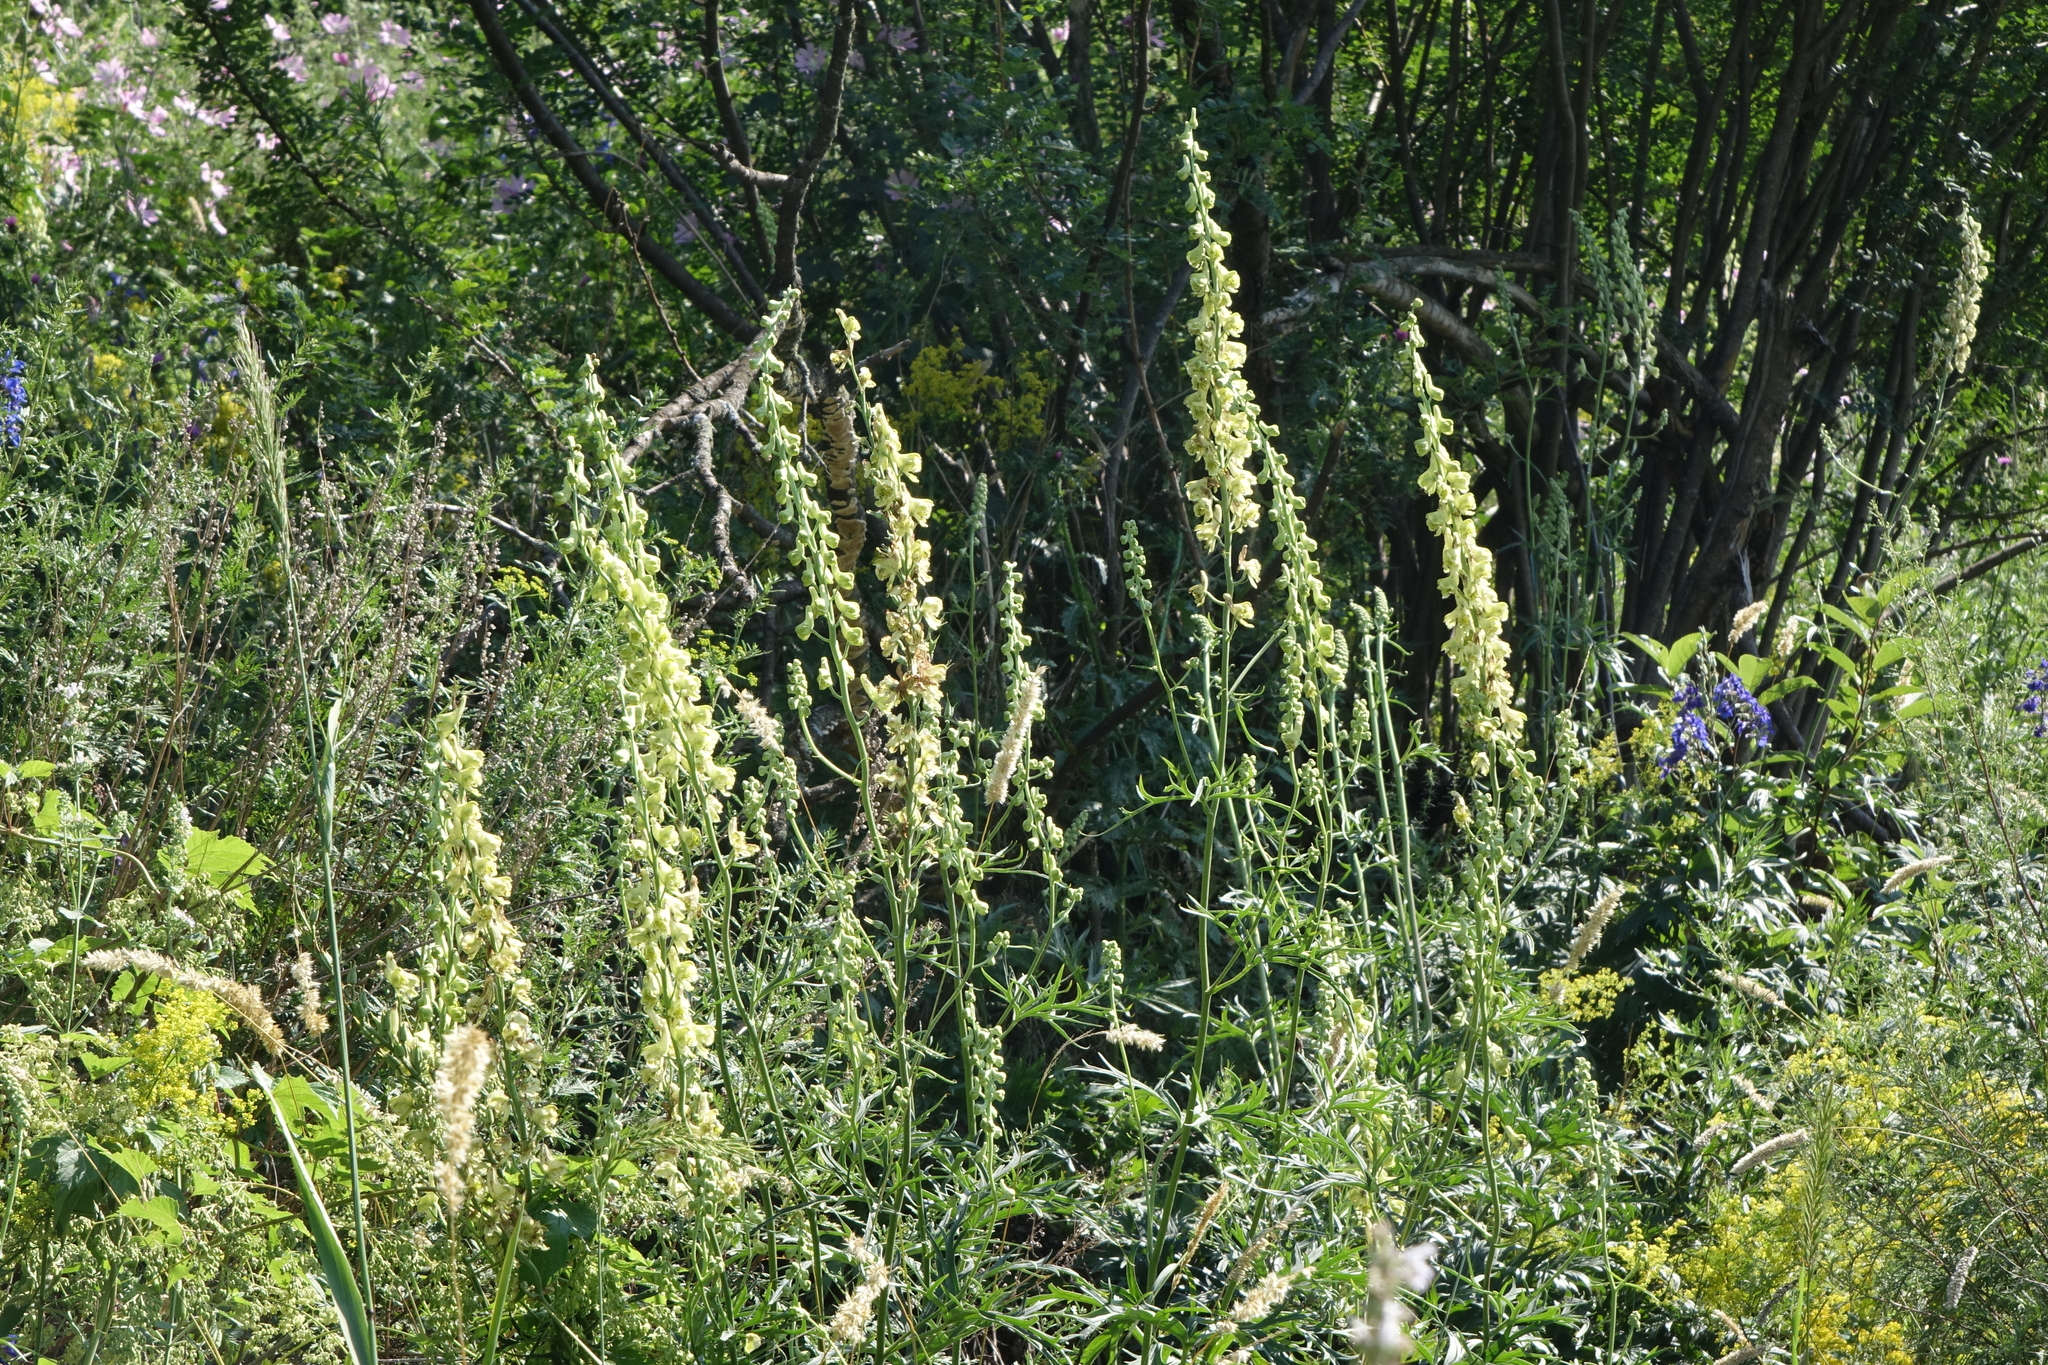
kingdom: Plantae
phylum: Tracheophyta
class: Magnoliopsida
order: Ranunculales
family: Ranunculaceae
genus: Aconitum
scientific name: Aconitum barbatum
